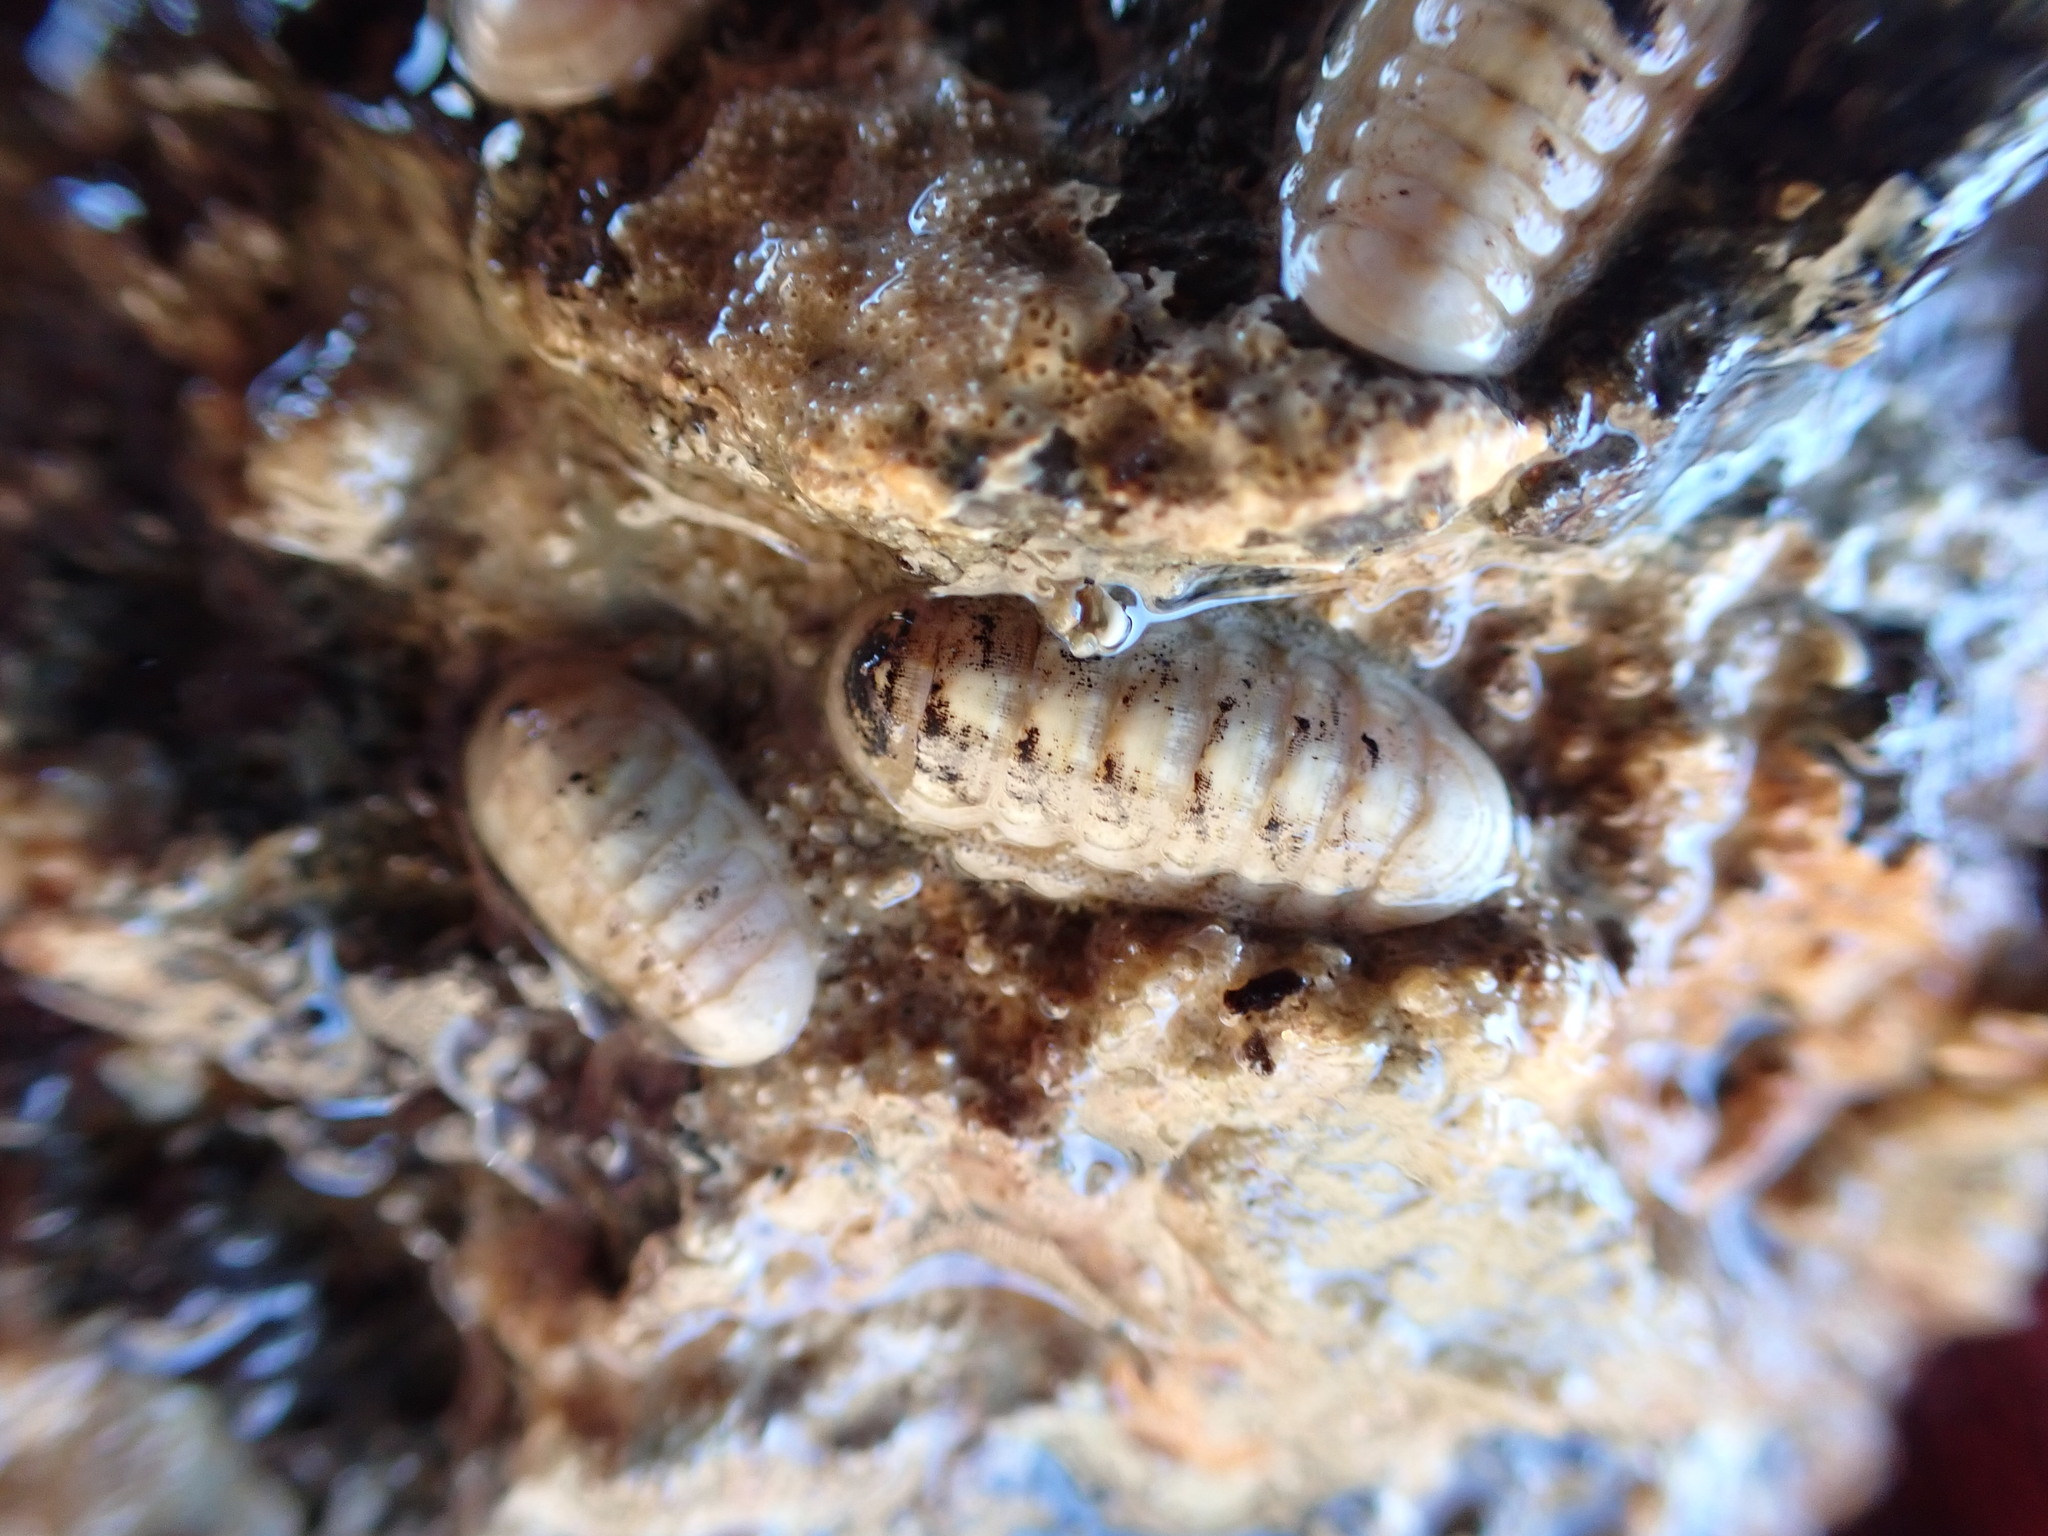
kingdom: Animalia
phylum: Mollusca
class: Polyplacophora
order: Lepidopleurida
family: Leptochitonidae
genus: Leptochiton
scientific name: Leptochiton inquinatus
